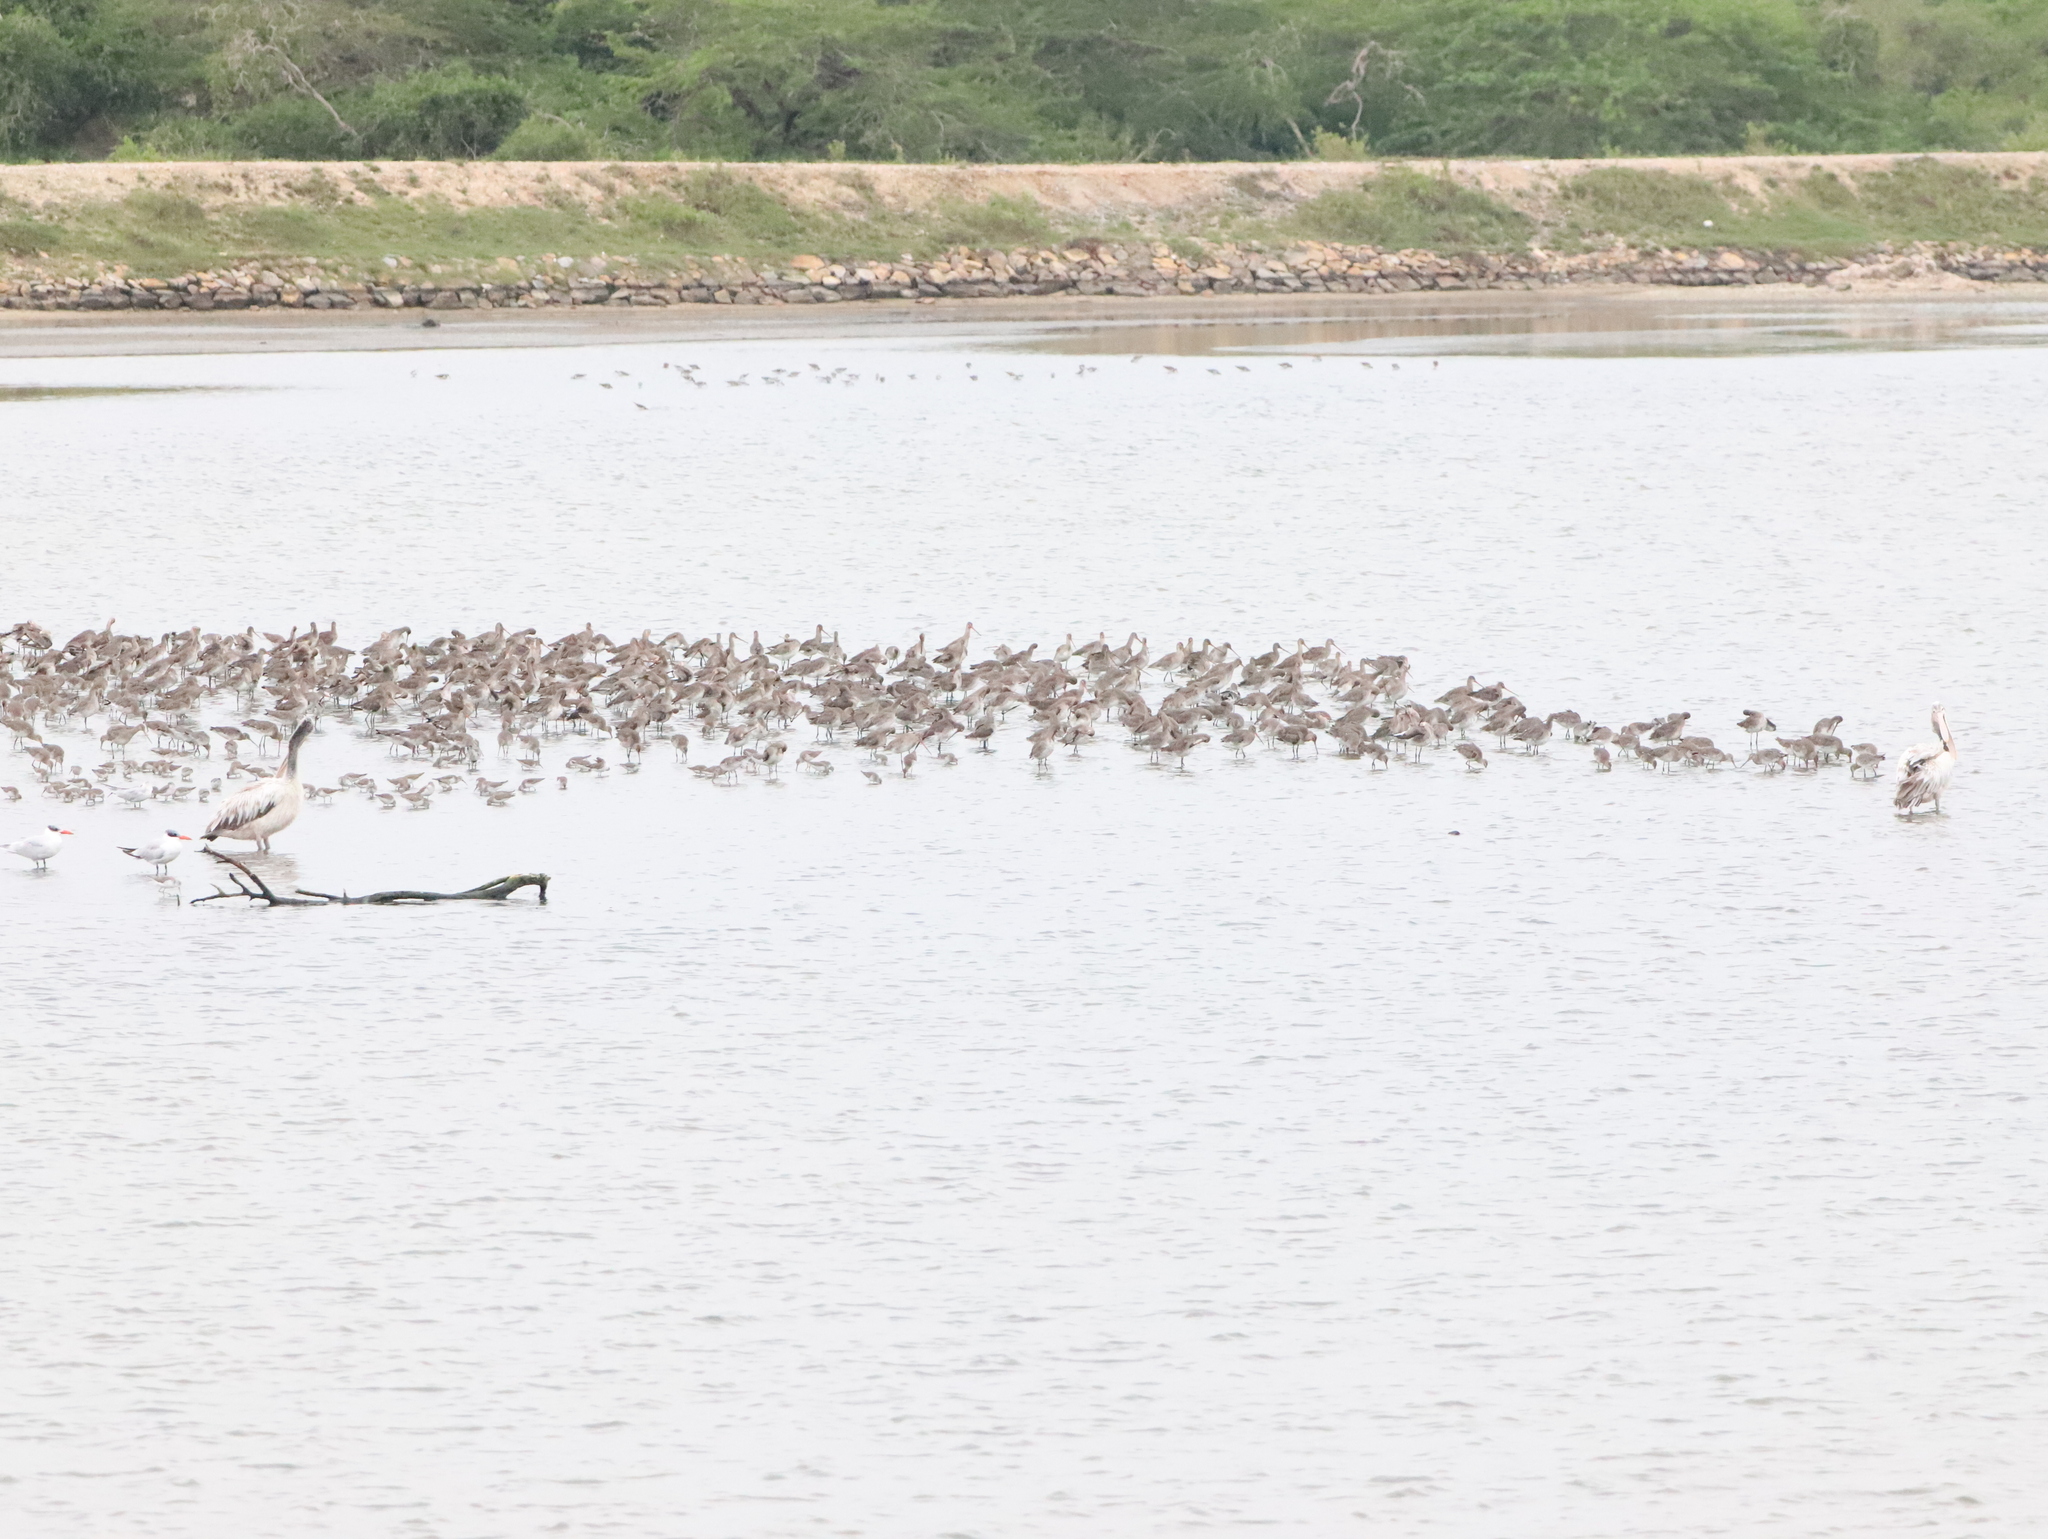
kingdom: Animalia
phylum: Chordata
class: Aves
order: Pelecaniformes
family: Pelecanidae
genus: Pelecanus
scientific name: Pelecanus philippensis
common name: Spot-billed pelican
